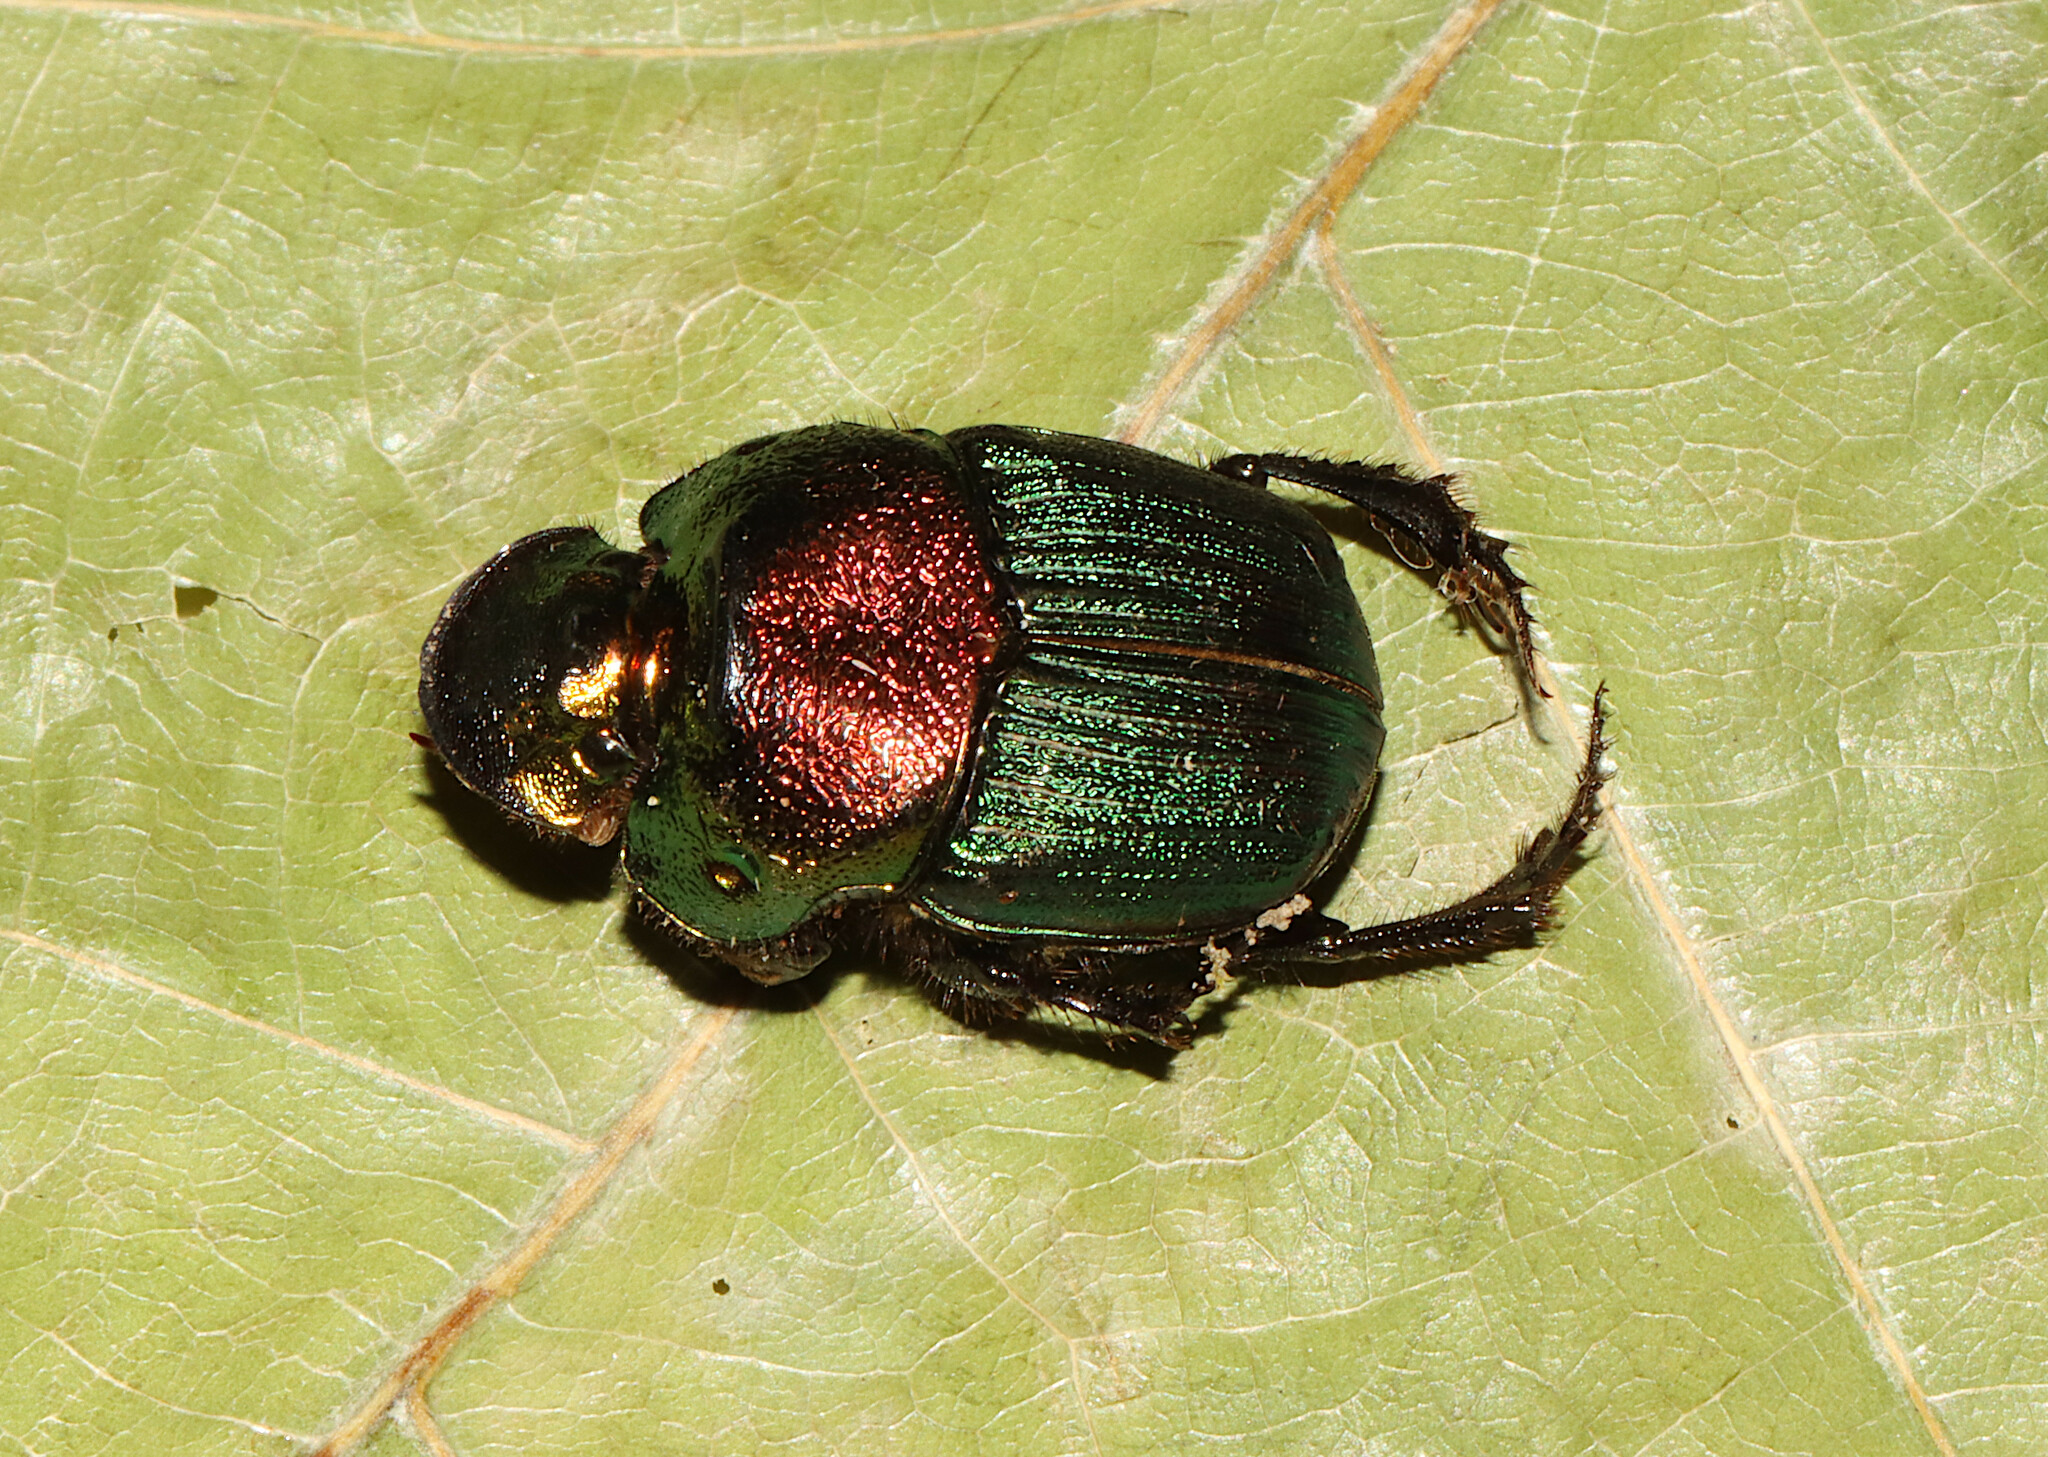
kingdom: Animalia
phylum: Arthropoda
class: Insecta
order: Coleoptera
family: Scarabaeidae
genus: Phanaeus
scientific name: Phanaeus vindex
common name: Rainbow scarab
